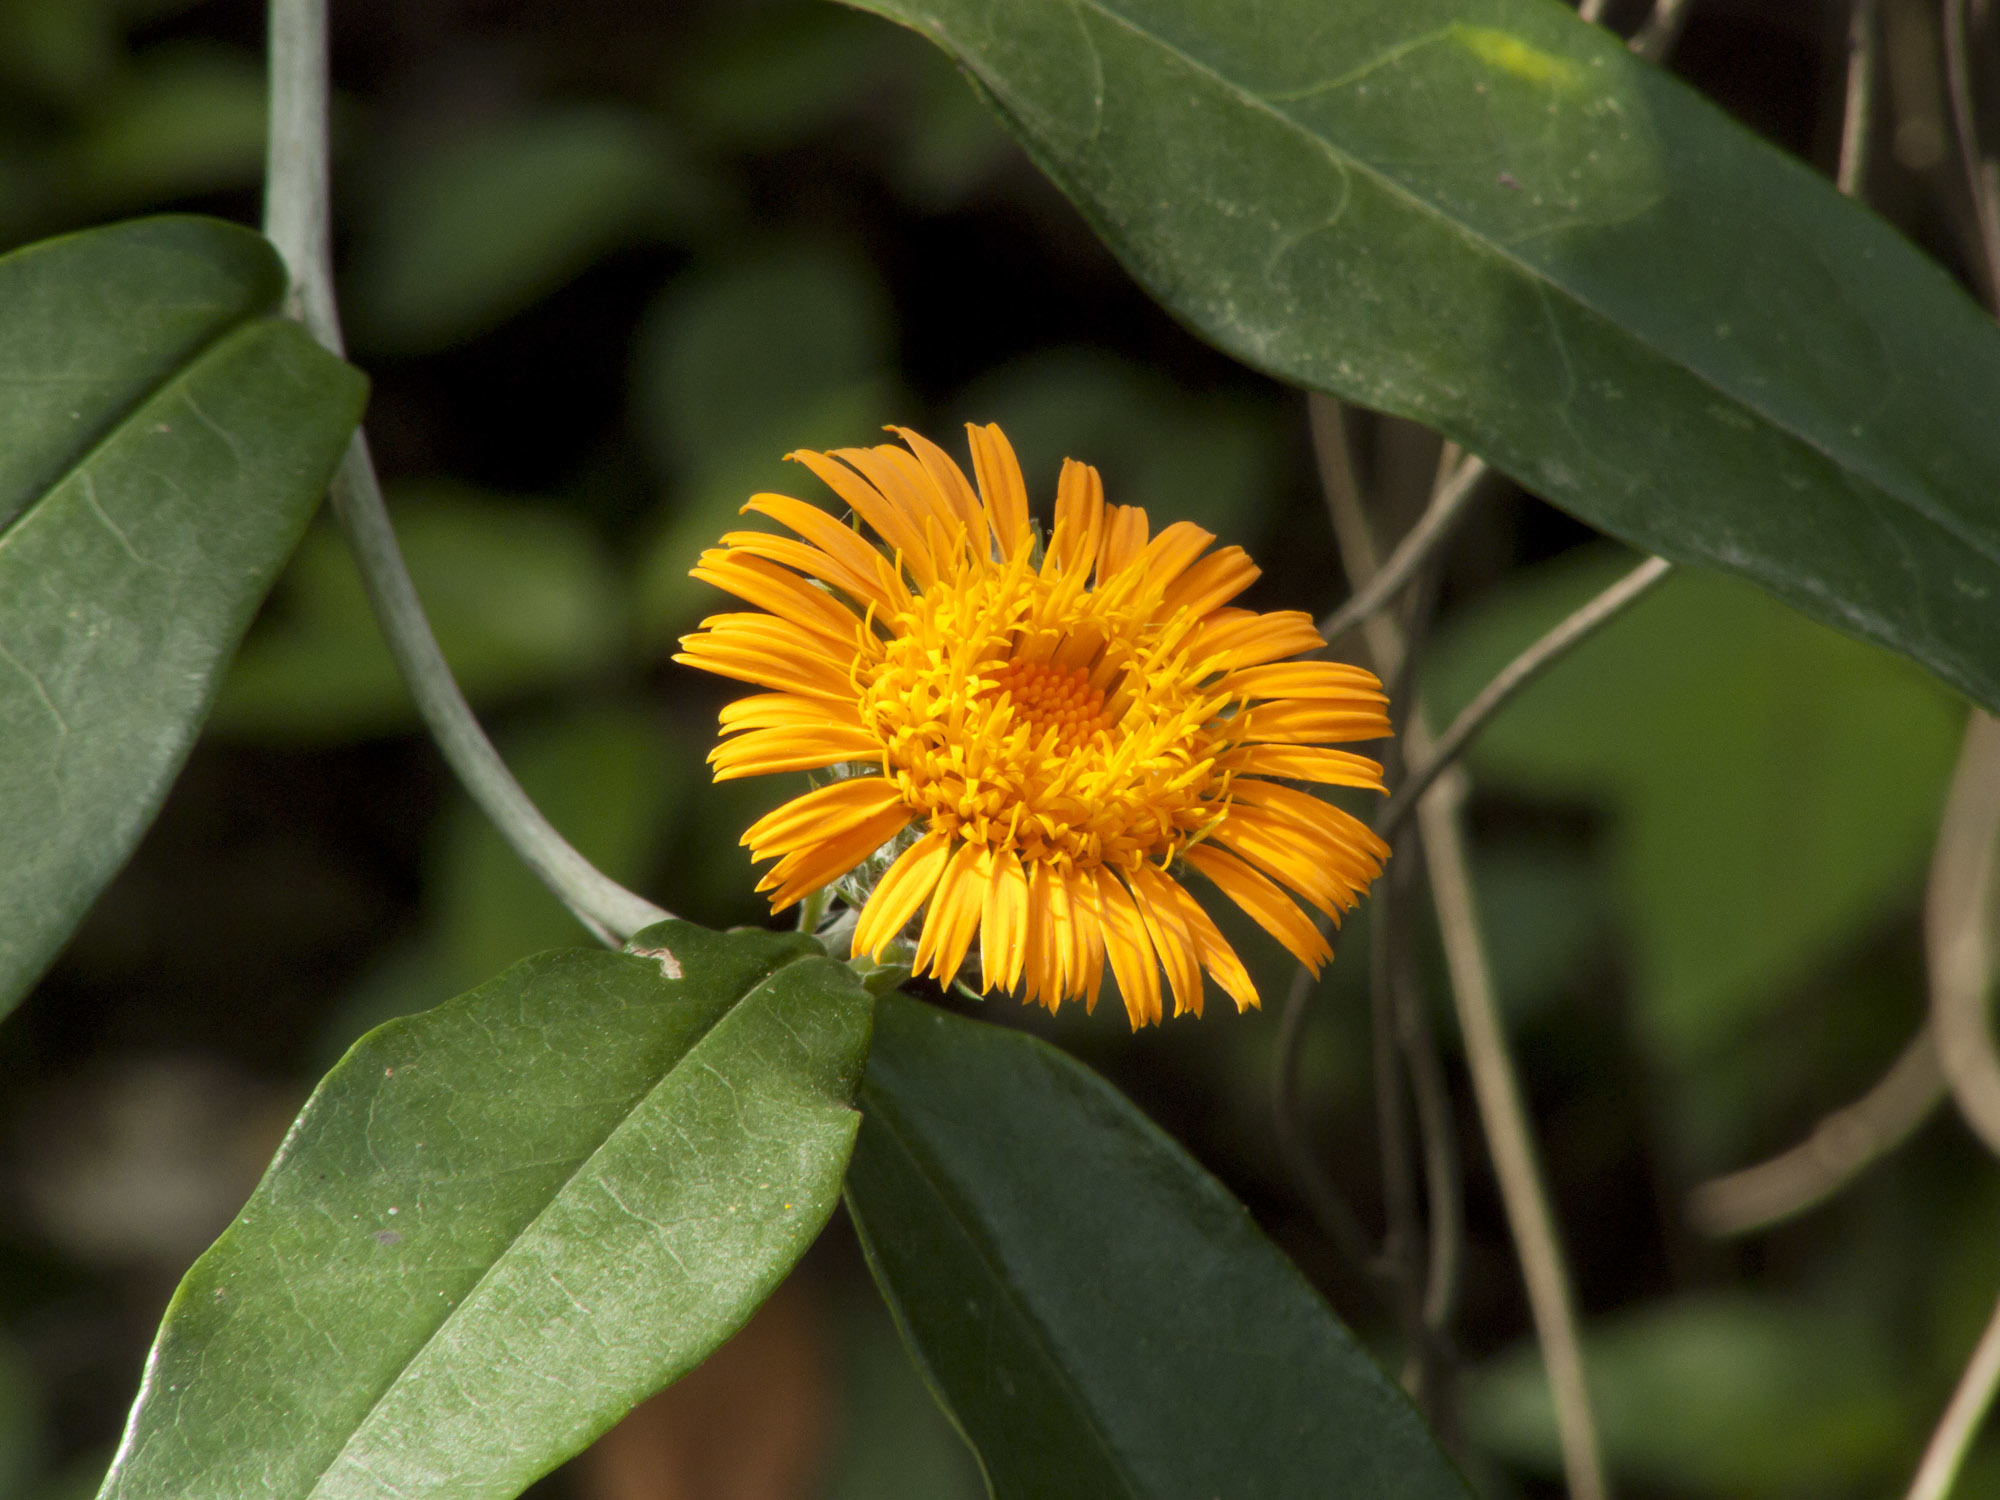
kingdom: Plantae
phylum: Tracheophyta
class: Magnoliopsida
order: Asterales
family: Asteraceae
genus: Lycoseris
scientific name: Lycoseris mexicana
